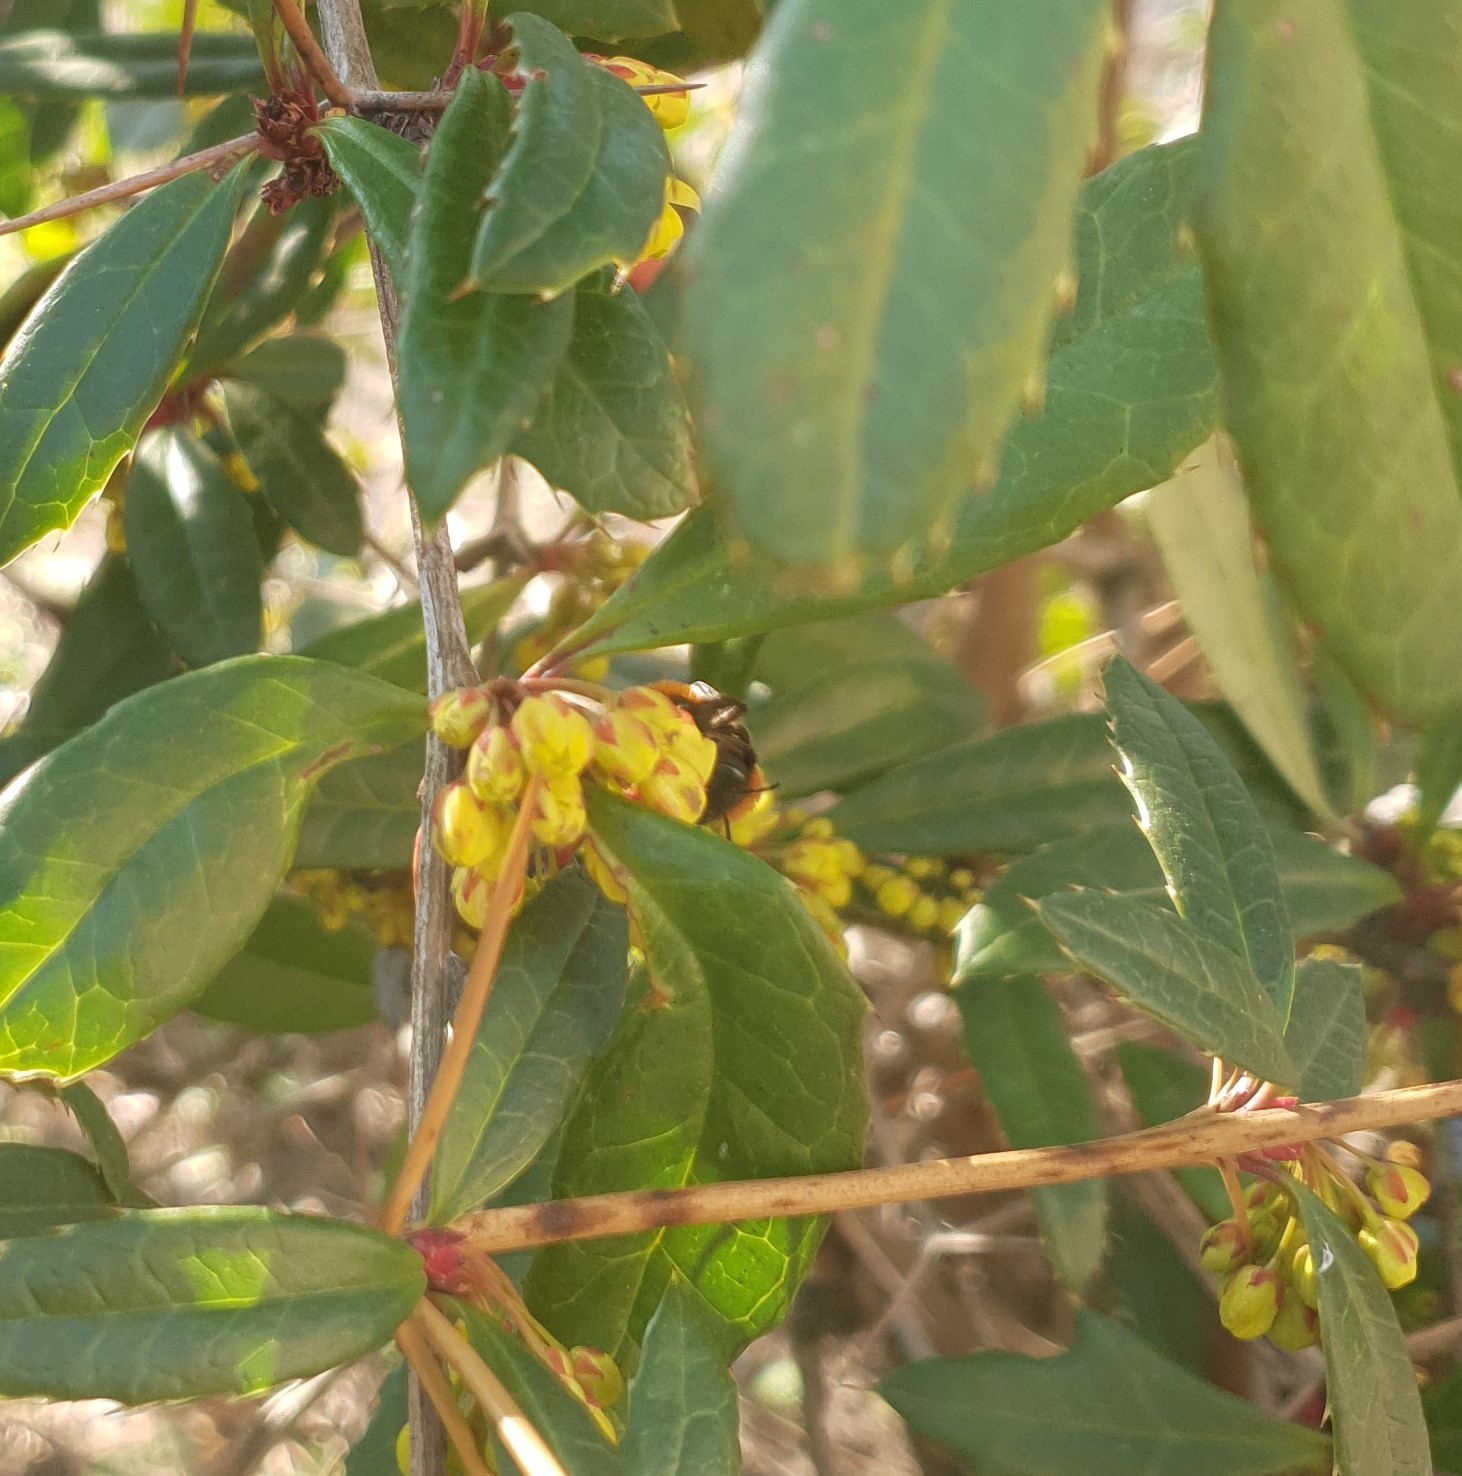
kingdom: Animalia
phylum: Arthropoda
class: Insecta
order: Hymenoptera
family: Andrenidae
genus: Andrena
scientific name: Andrena fulva
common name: Tawny mining bee
